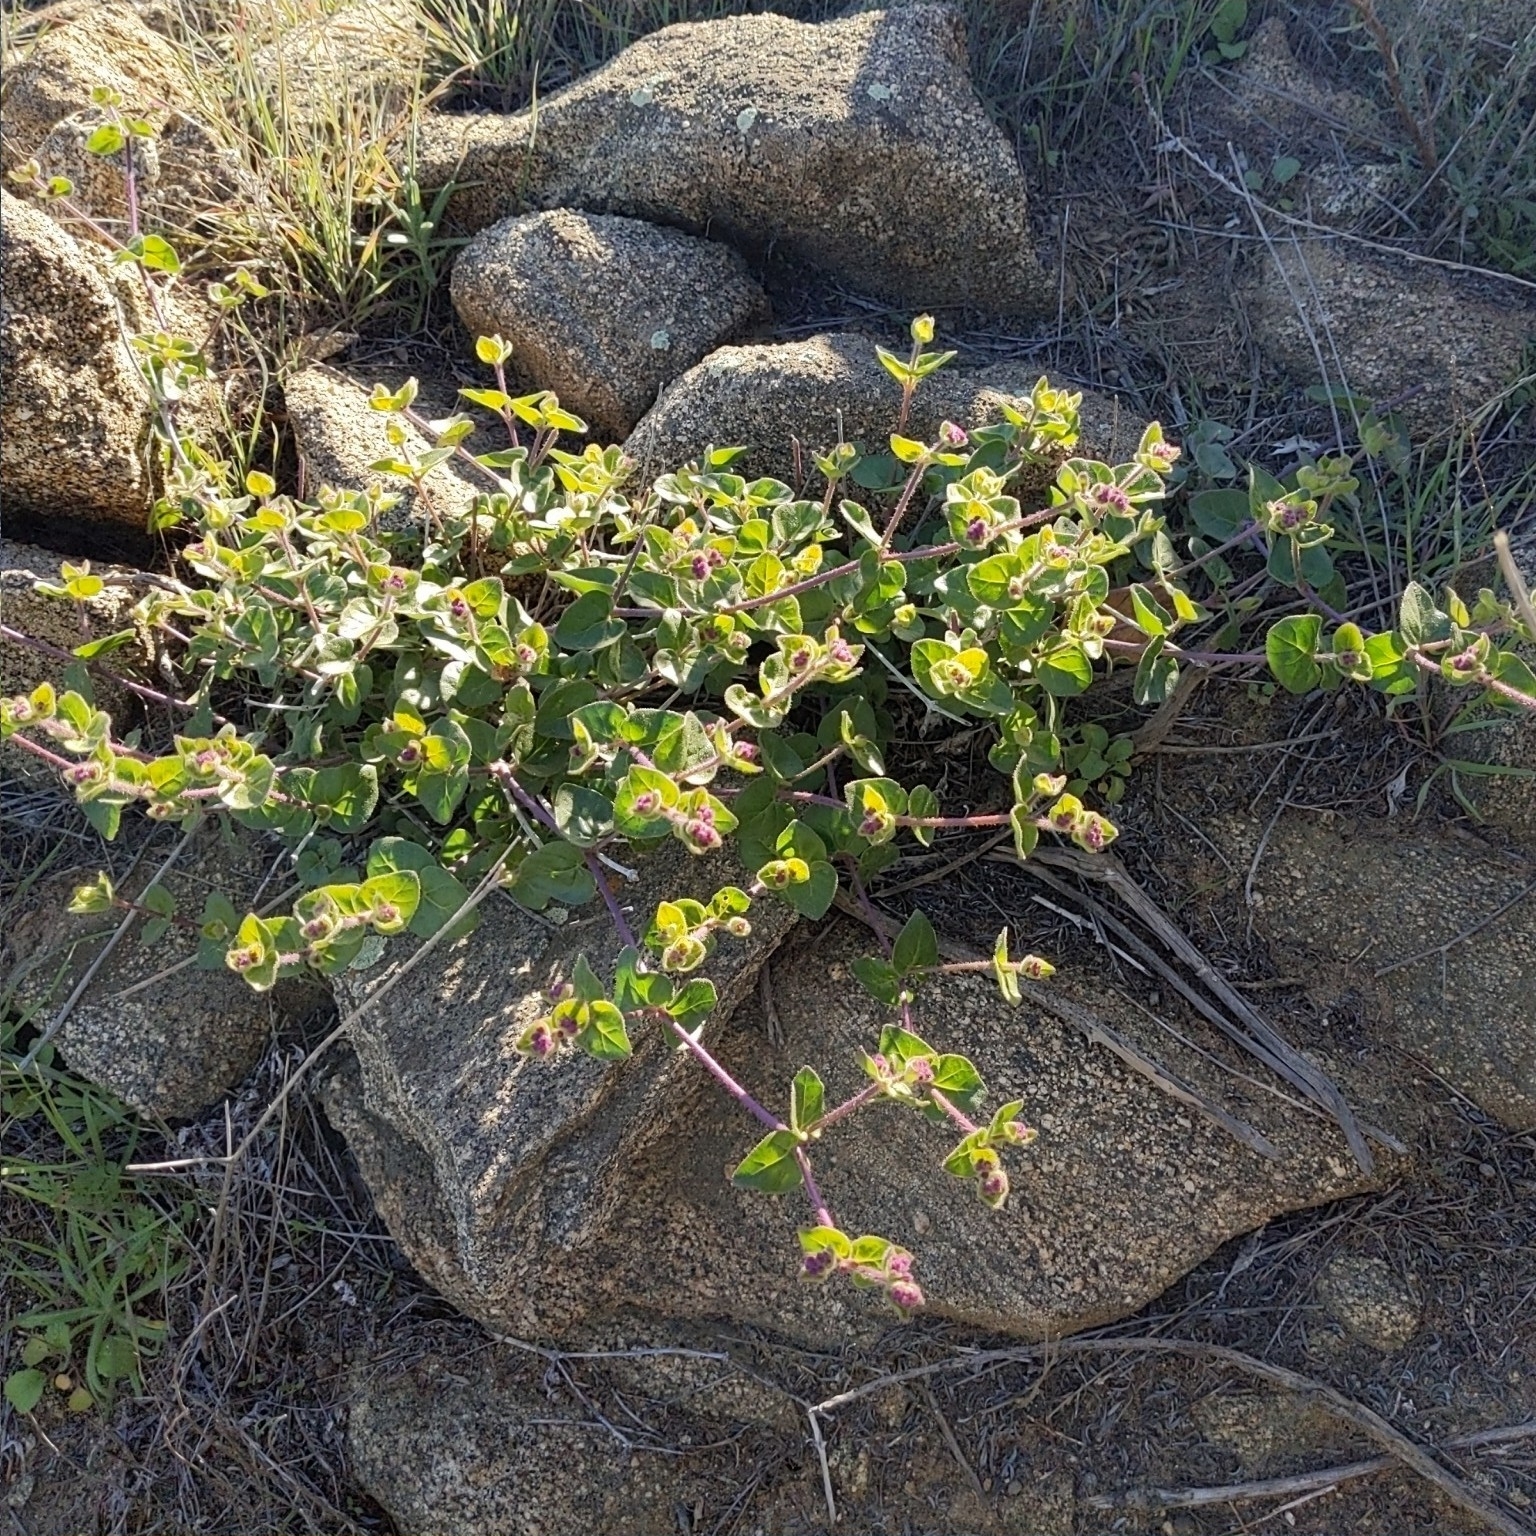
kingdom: Plantae
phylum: Tracheophyta
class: Magnoliopsida
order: Caryophyllales
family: Nyctaginaceae
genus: Mirabilis
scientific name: Mirabilis laevis
